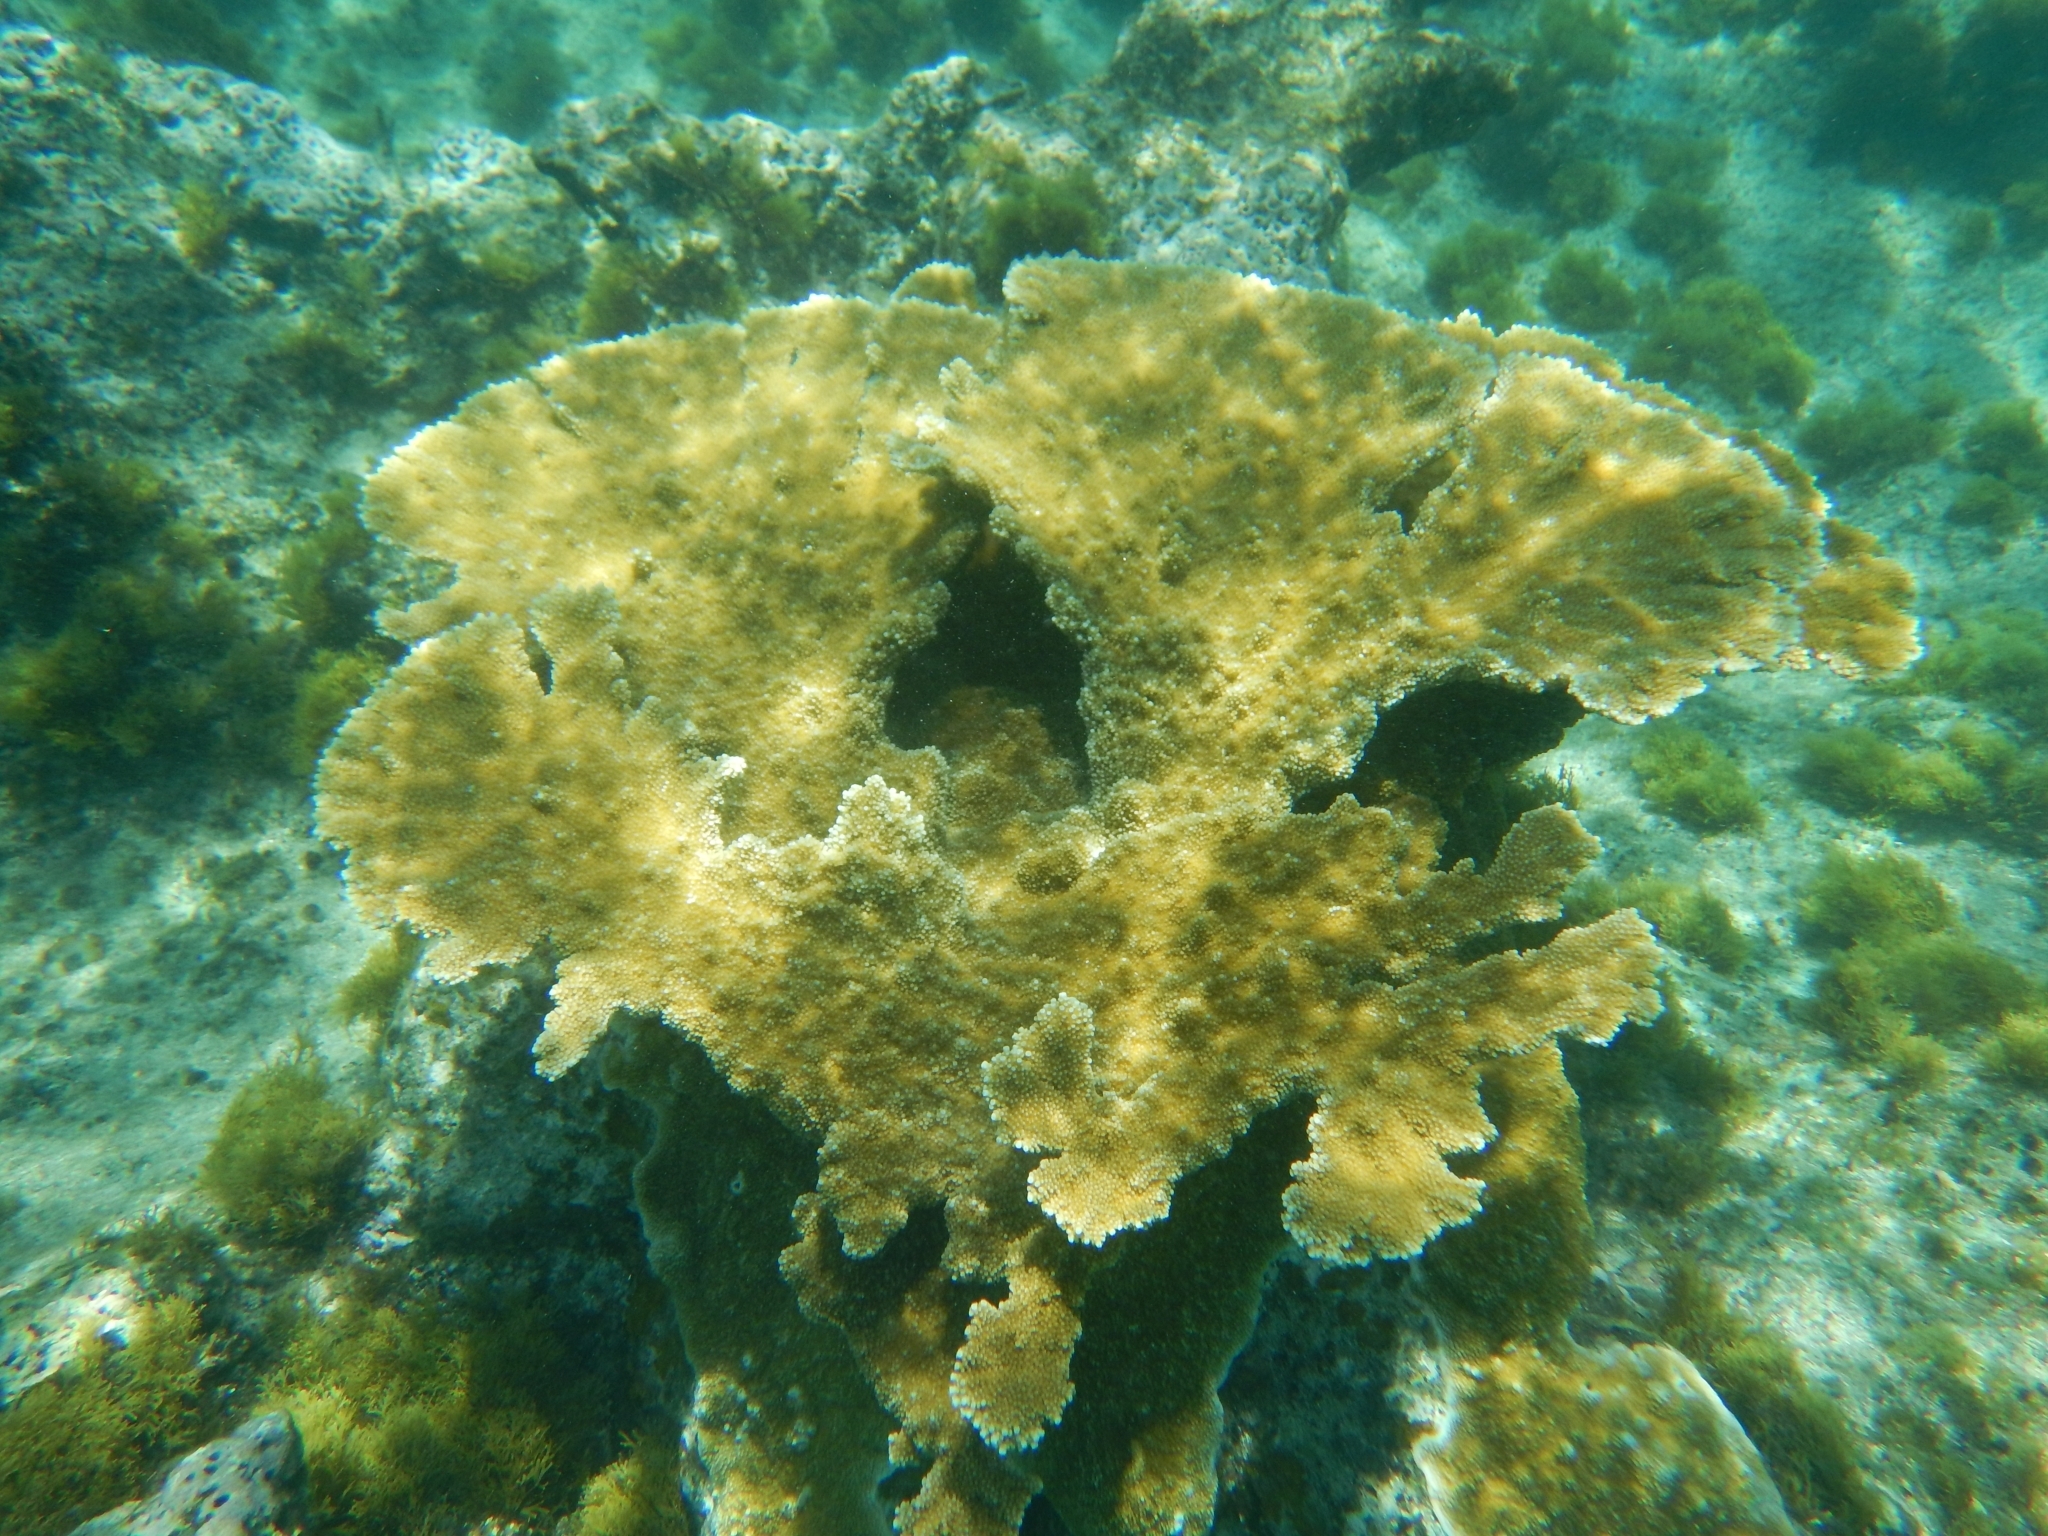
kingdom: Animalia
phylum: Cnidaria
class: Anthozoa
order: Scleractinia
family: Acroporidae
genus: Acropora
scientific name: Acropora palmata
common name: Elkhorn coral
